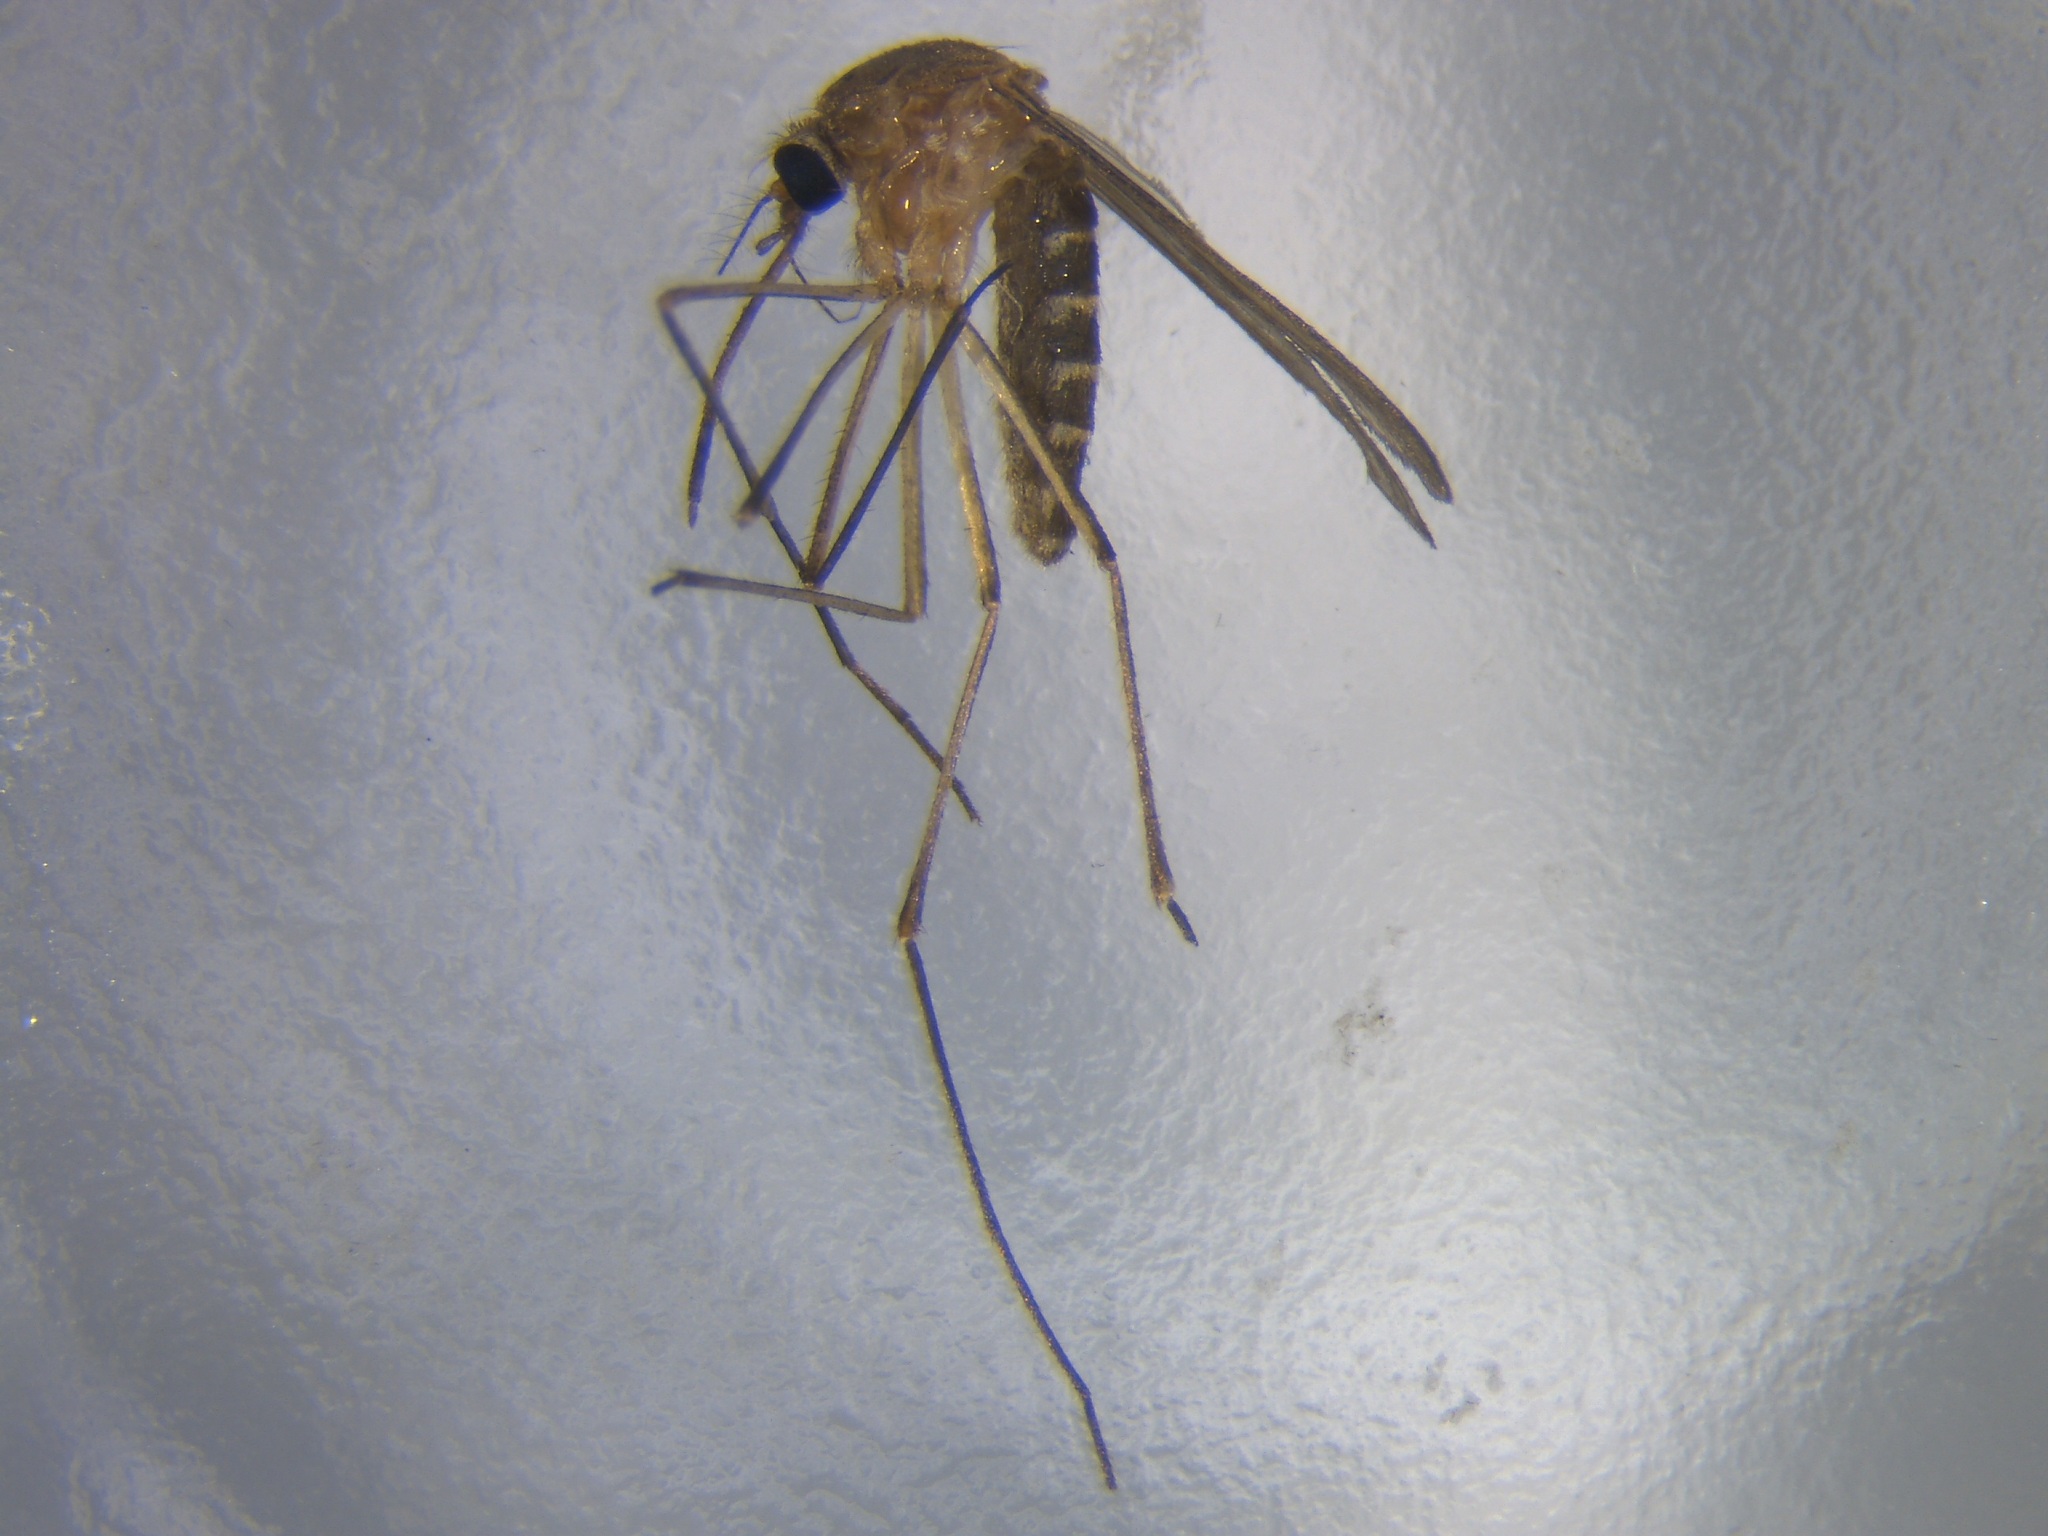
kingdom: Animalia
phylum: Arthropoda
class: Insecta
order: Diptera
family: Culicidae
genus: Culex
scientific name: Culex quinquefasciatus
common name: Southern house mosquito
